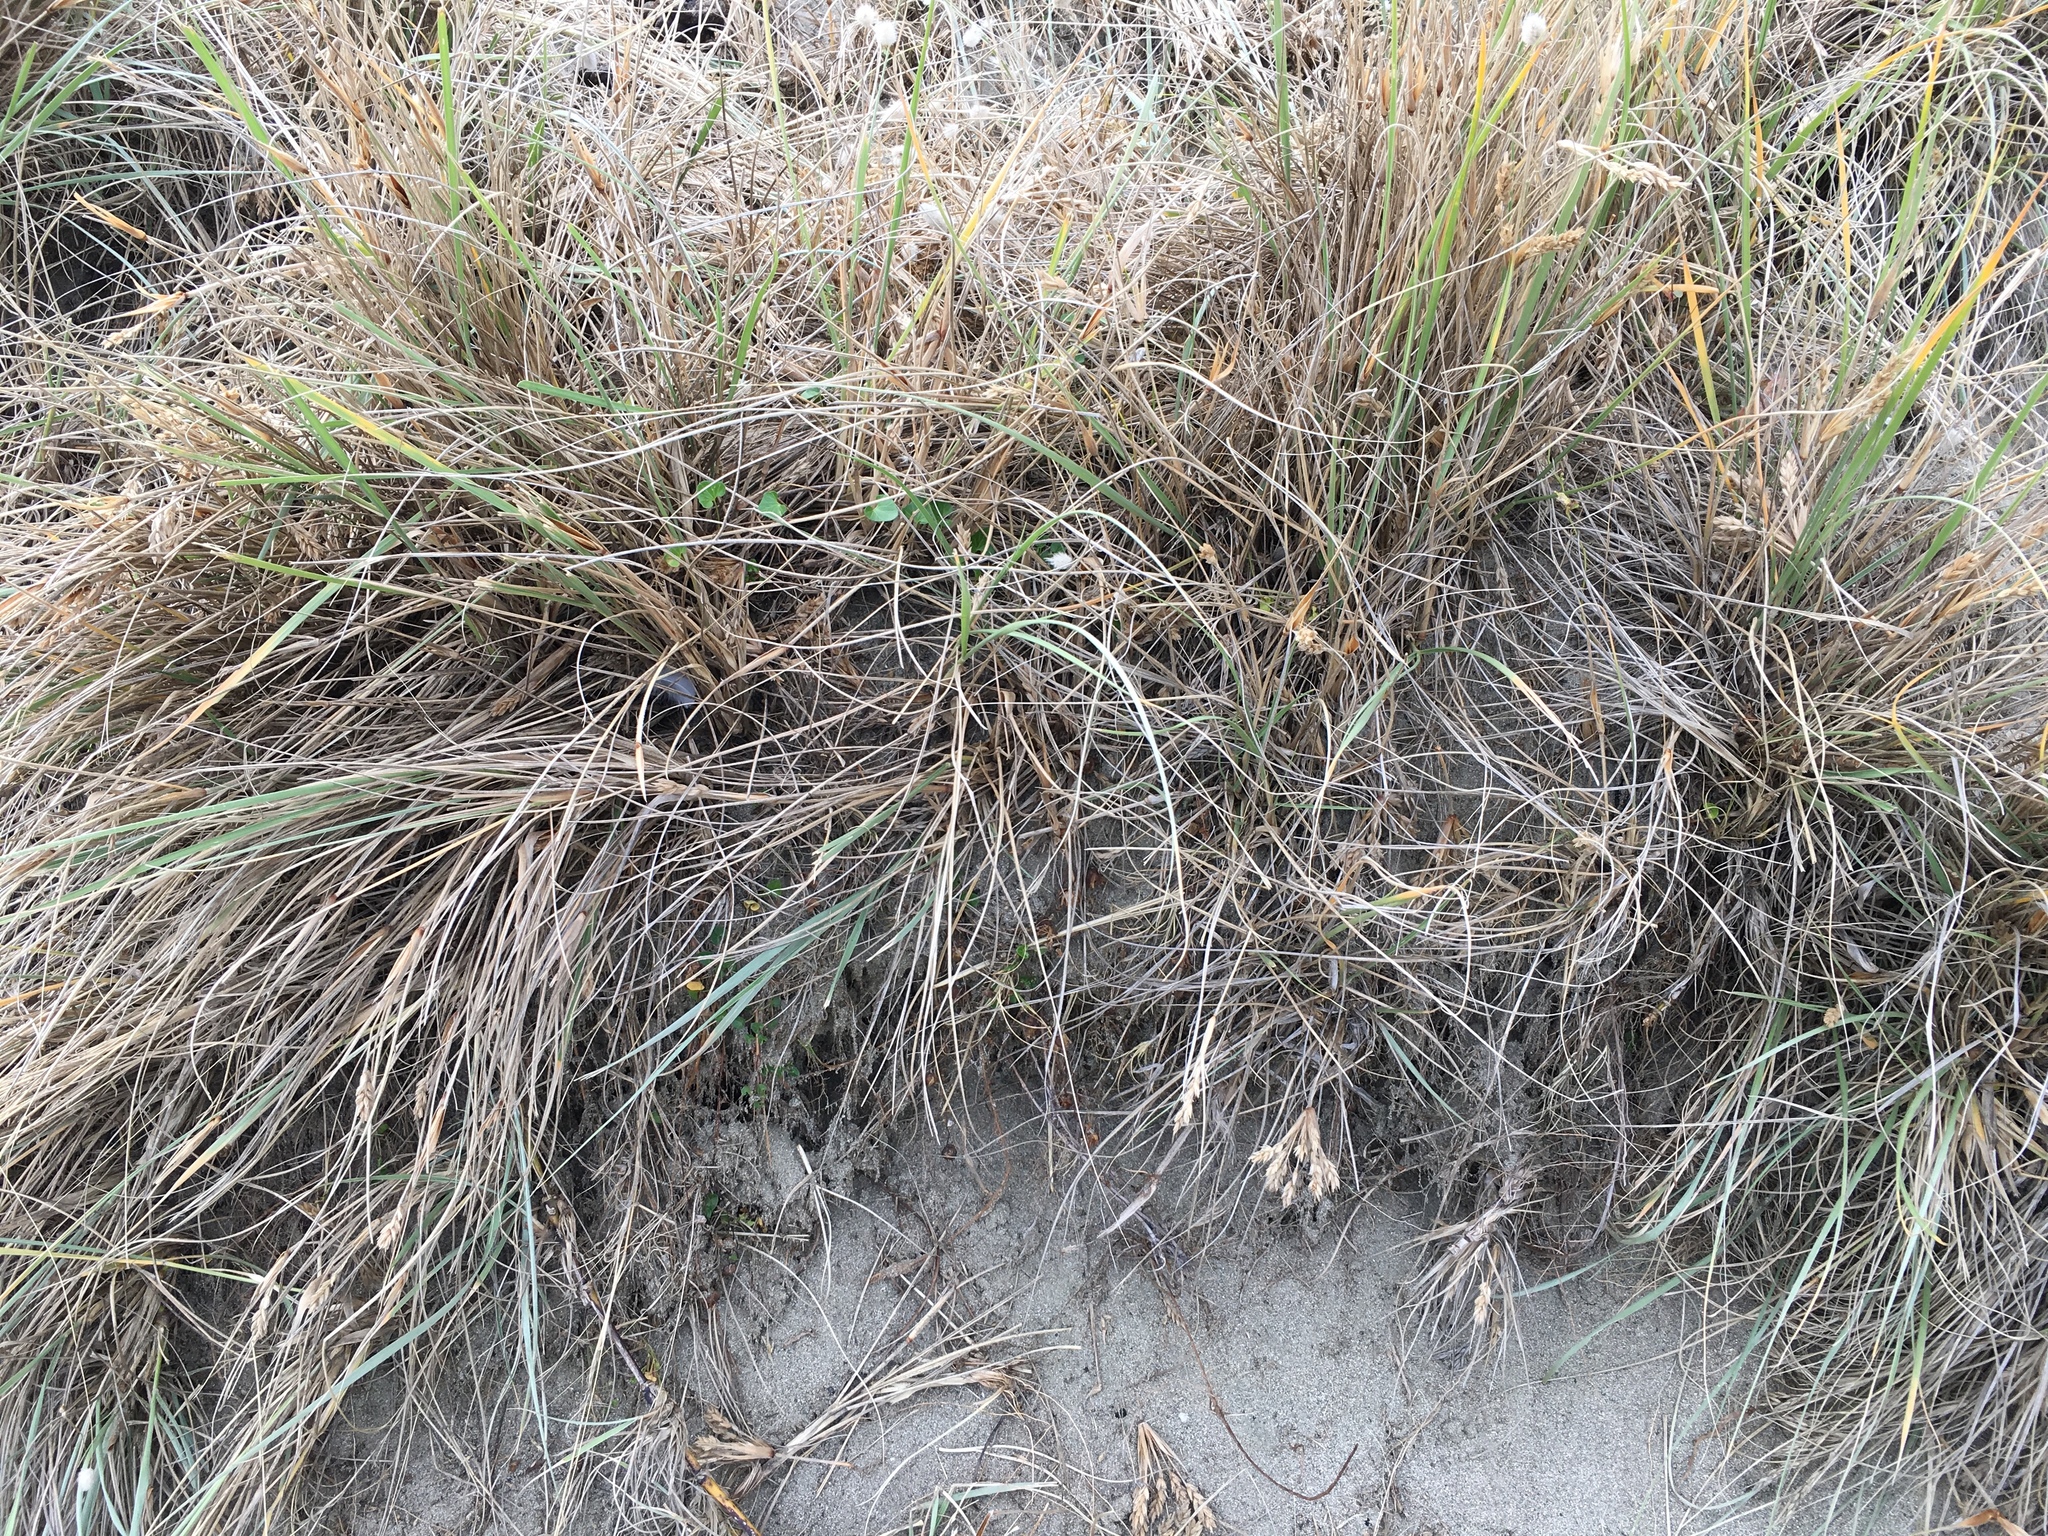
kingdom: Plantae
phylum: Tracheophyta
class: Liliopsida
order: Poales
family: Poaceae
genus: Spinifex
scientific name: Spinifex sericeus
